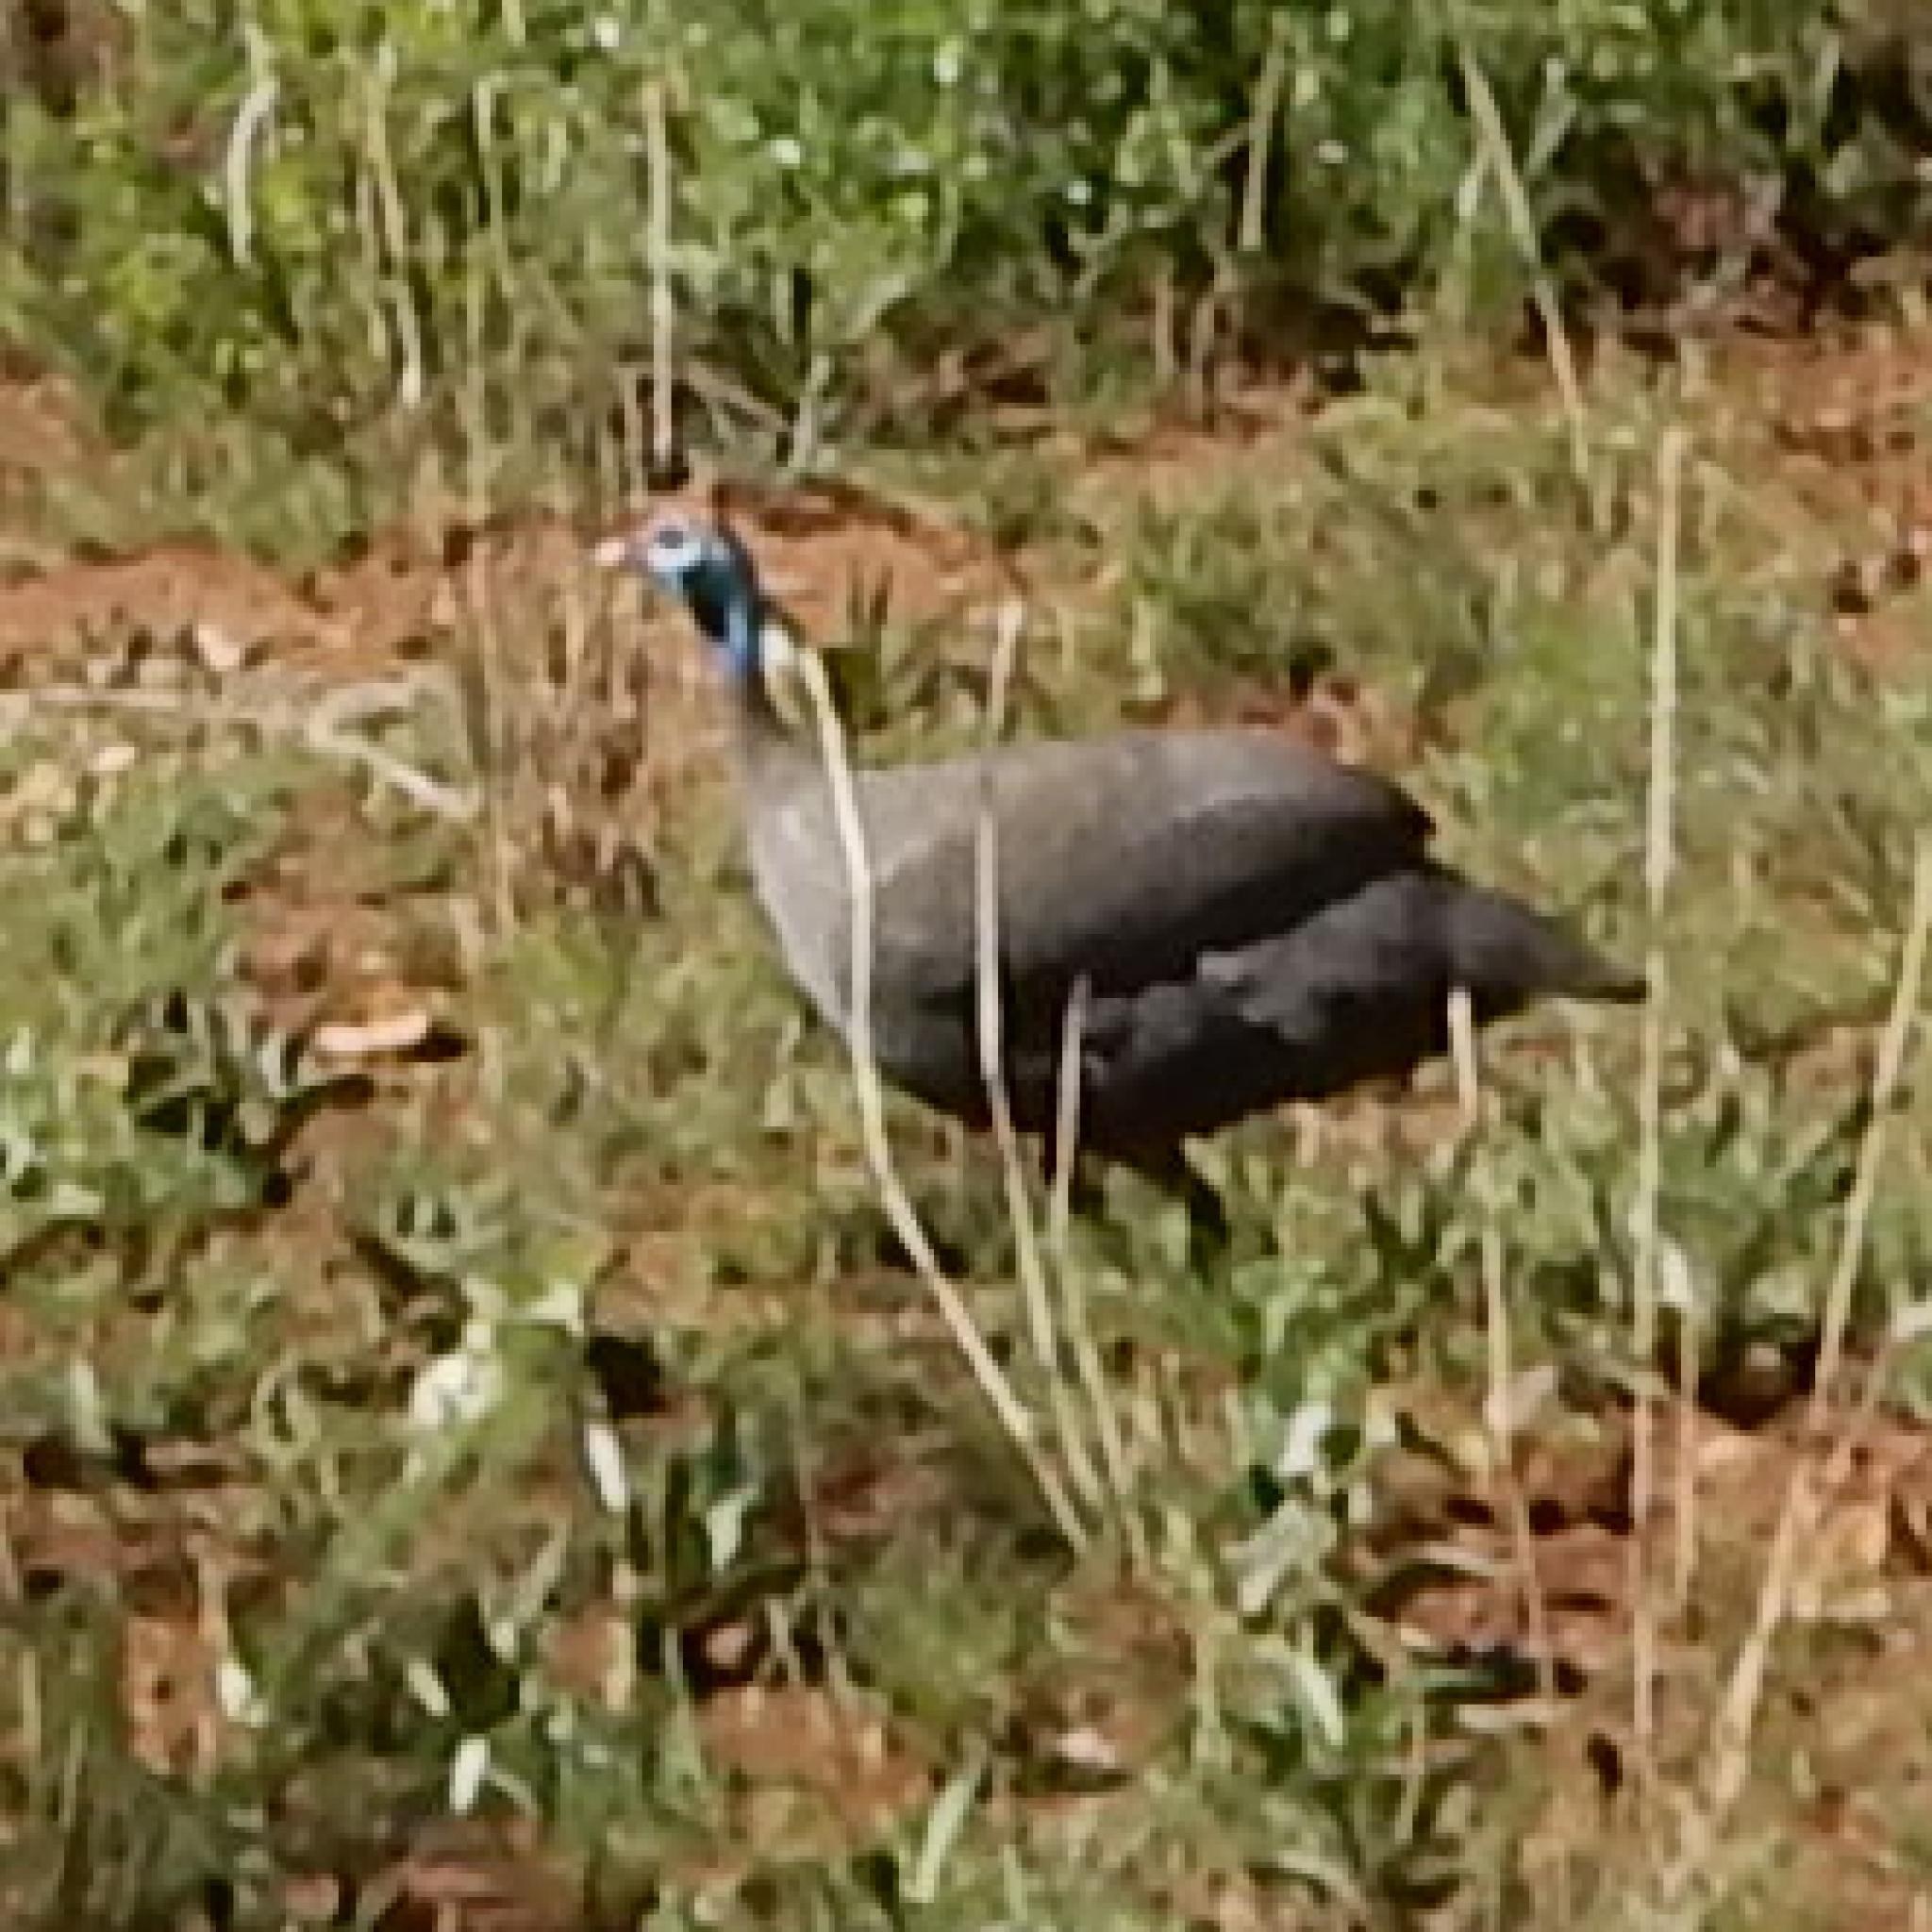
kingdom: Animalia
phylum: Chordata
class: Aves
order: Galliformes
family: Numididae
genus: Numida
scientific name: Numida meleagris
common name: Helmeted guineafowl
